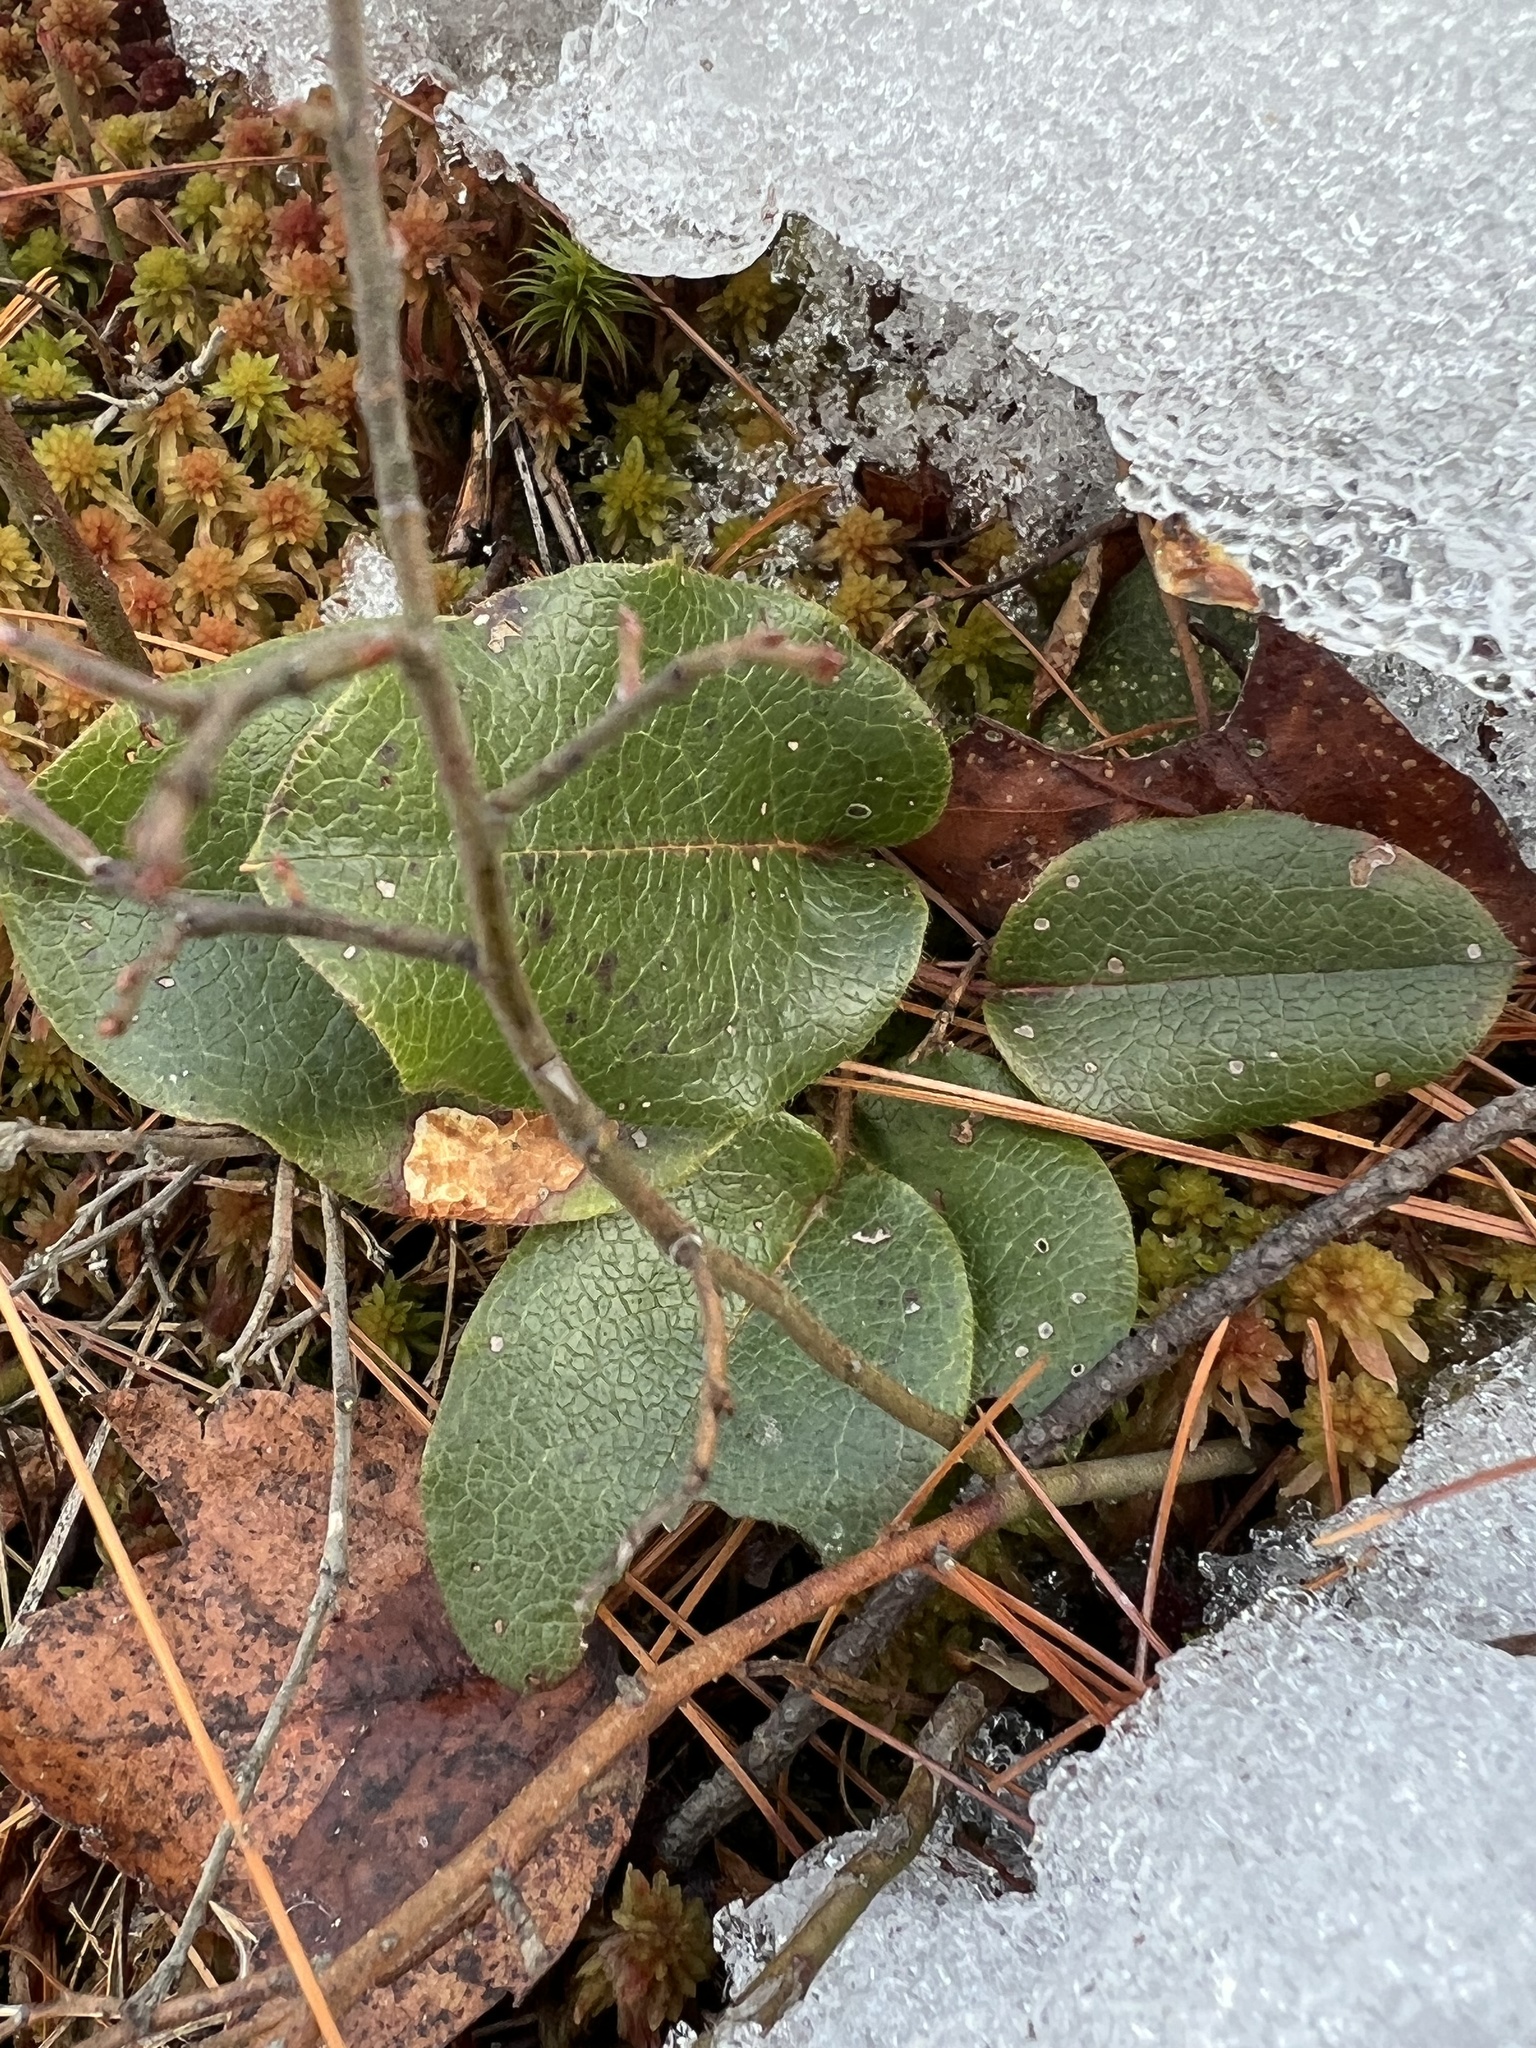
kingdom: Plantae
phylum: Tracheophyta
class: Magnoliopsida
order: Ericales
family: Ericaceae
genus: Epigaea
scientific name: Epigaea repens
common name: Gravelroot
